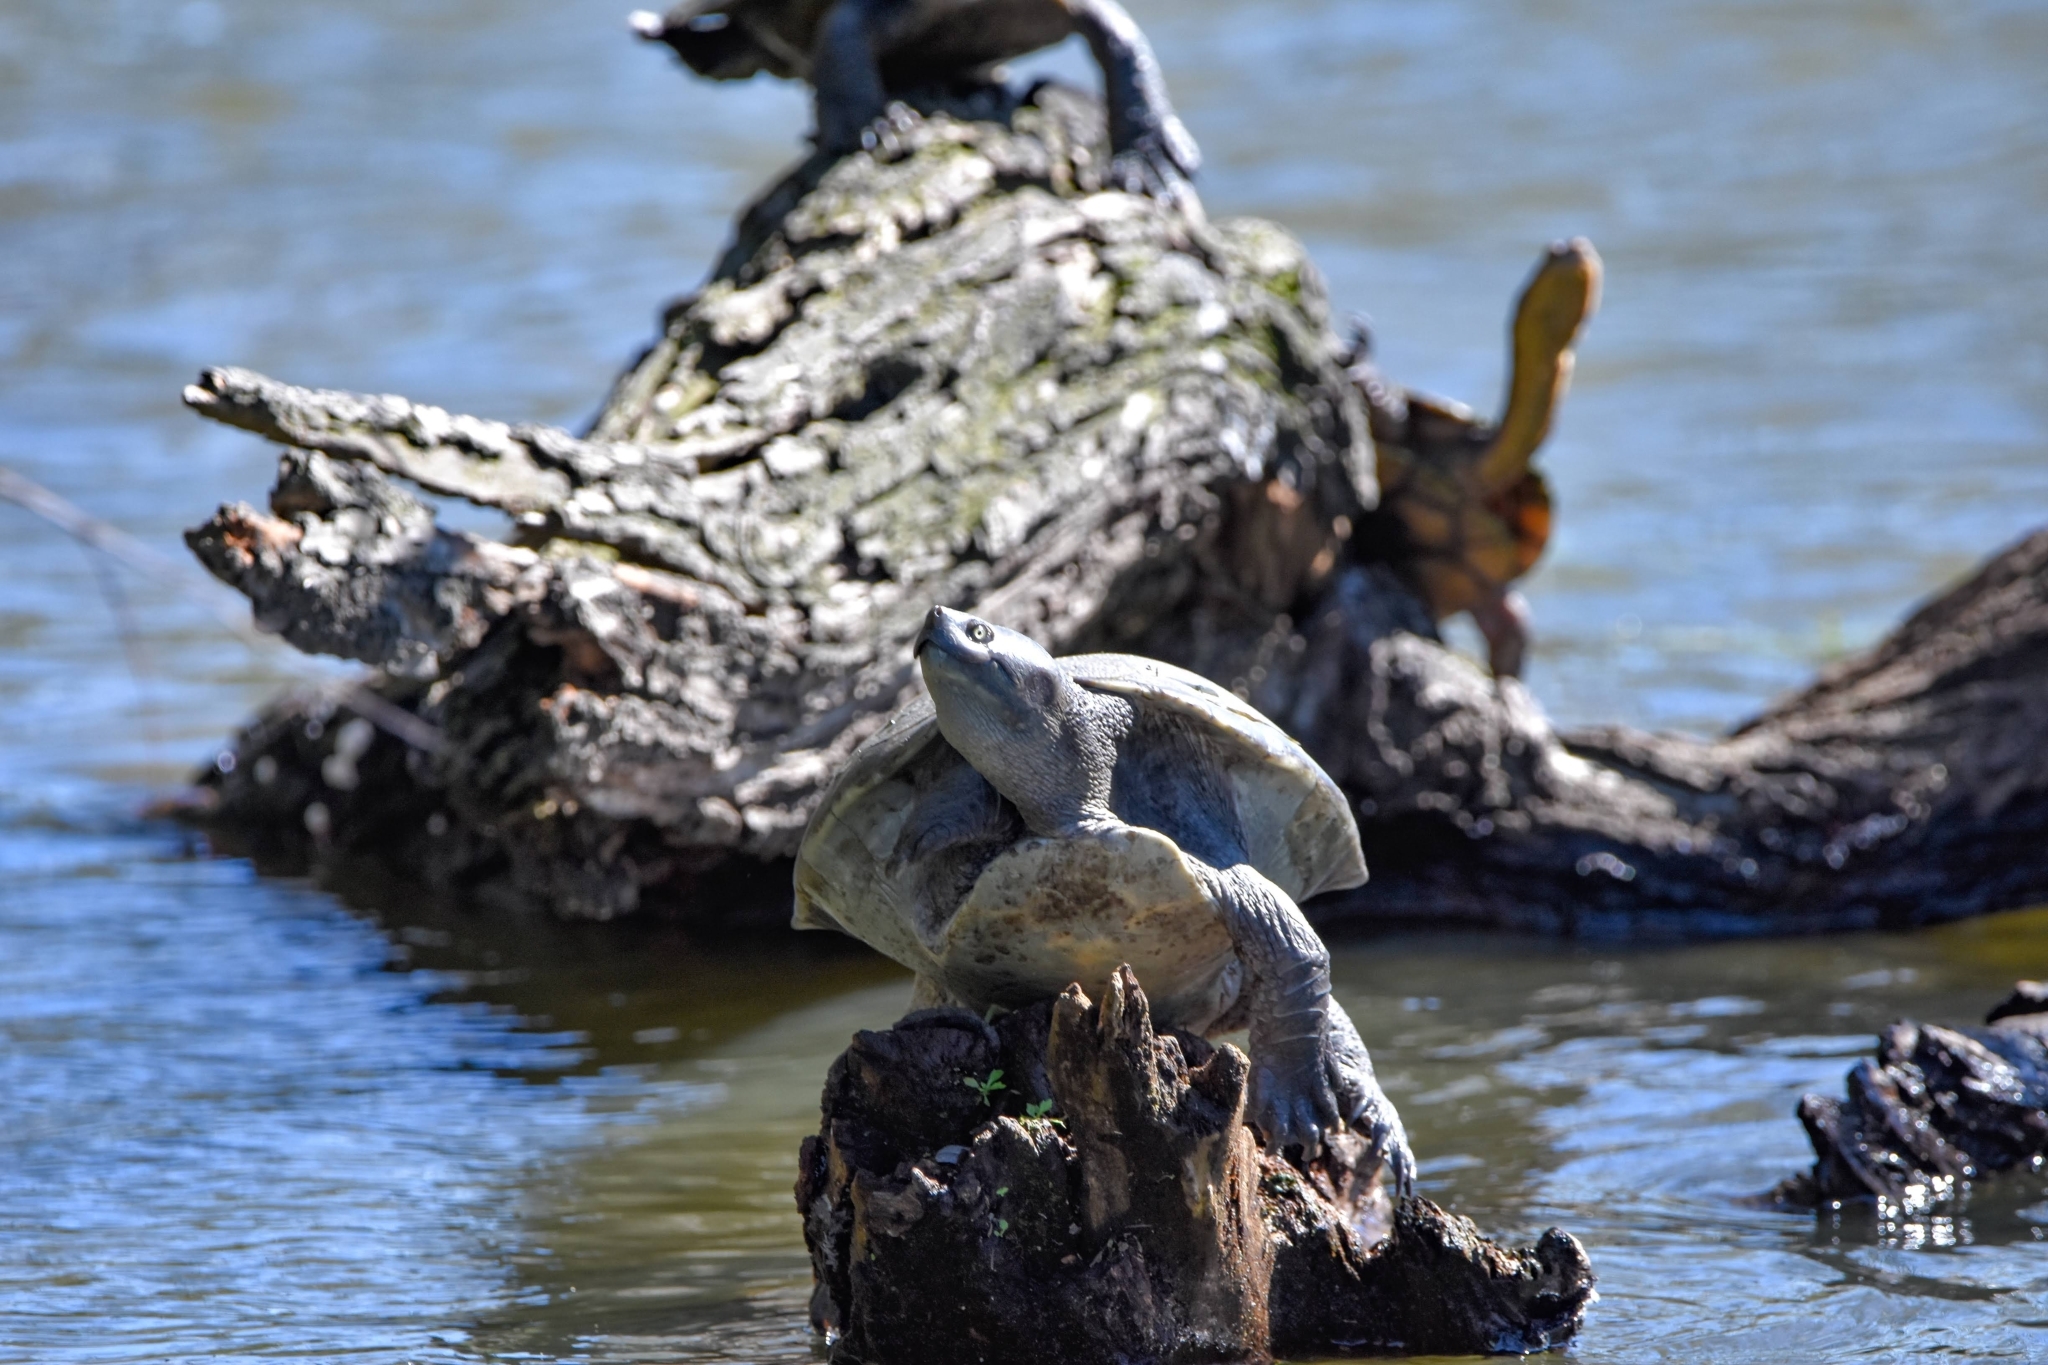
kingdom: Animalia
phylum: Chordata
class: Testudines
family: Chelidae
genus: Emydura
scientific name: Emydura macquarii
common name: Murray river turtle
